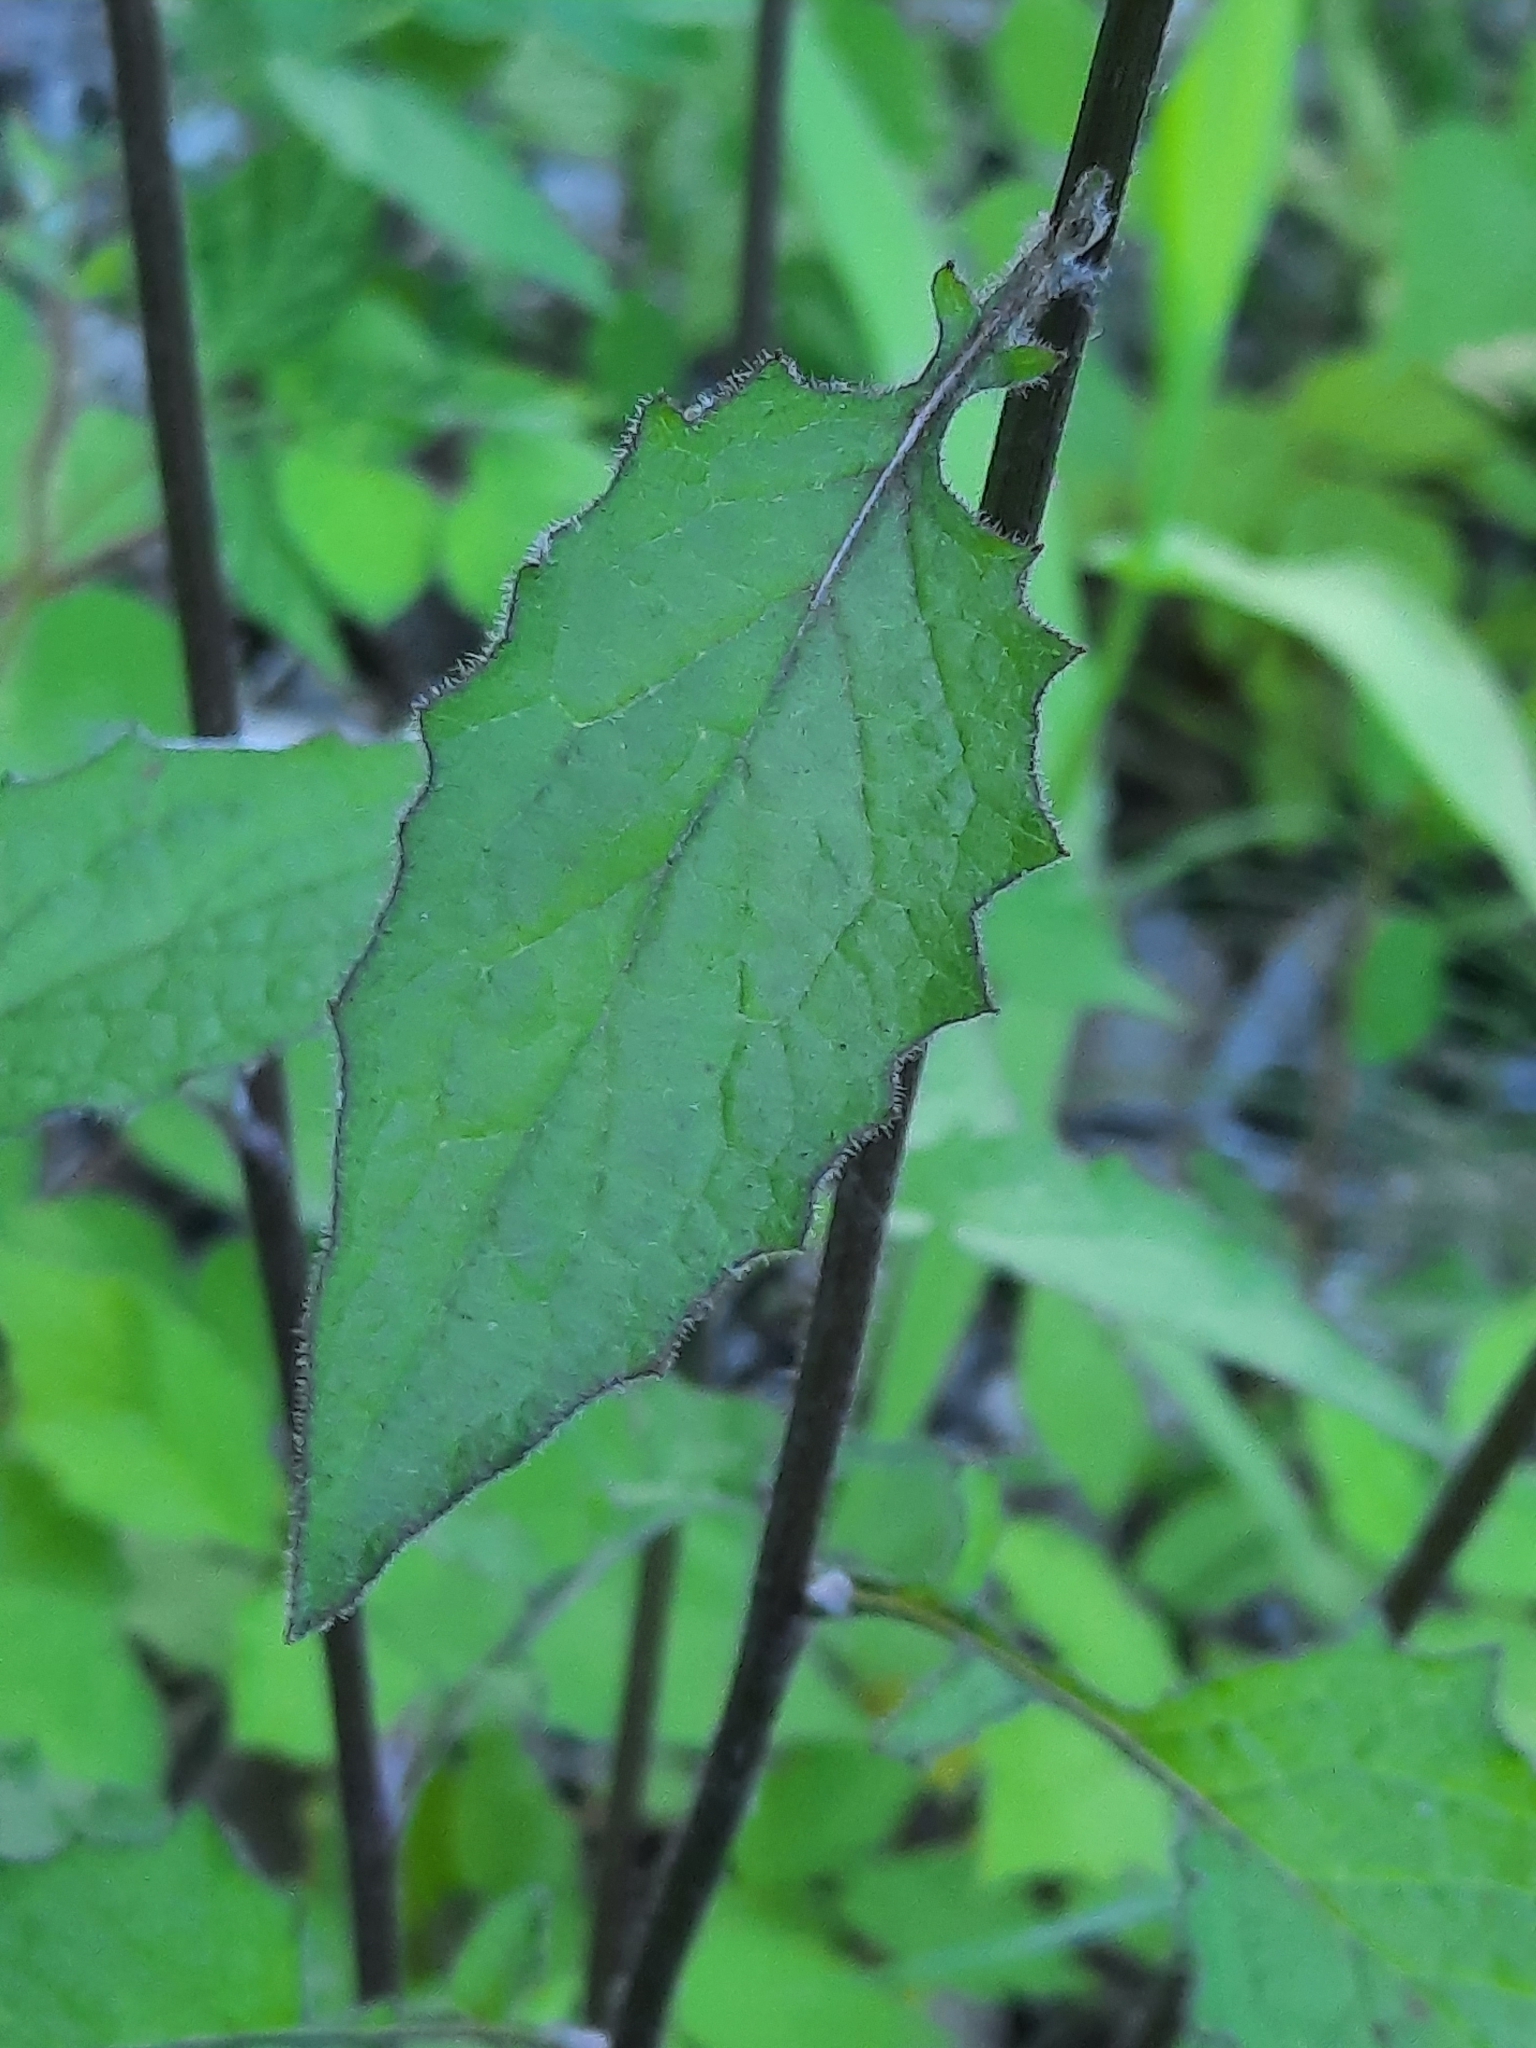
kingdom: Plantae
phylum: Tracheophyta
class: Magnoliopsida
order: Asterales
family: Asteraceae
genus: Lapsana
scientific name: Lapsana communis
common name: Nipplewort
